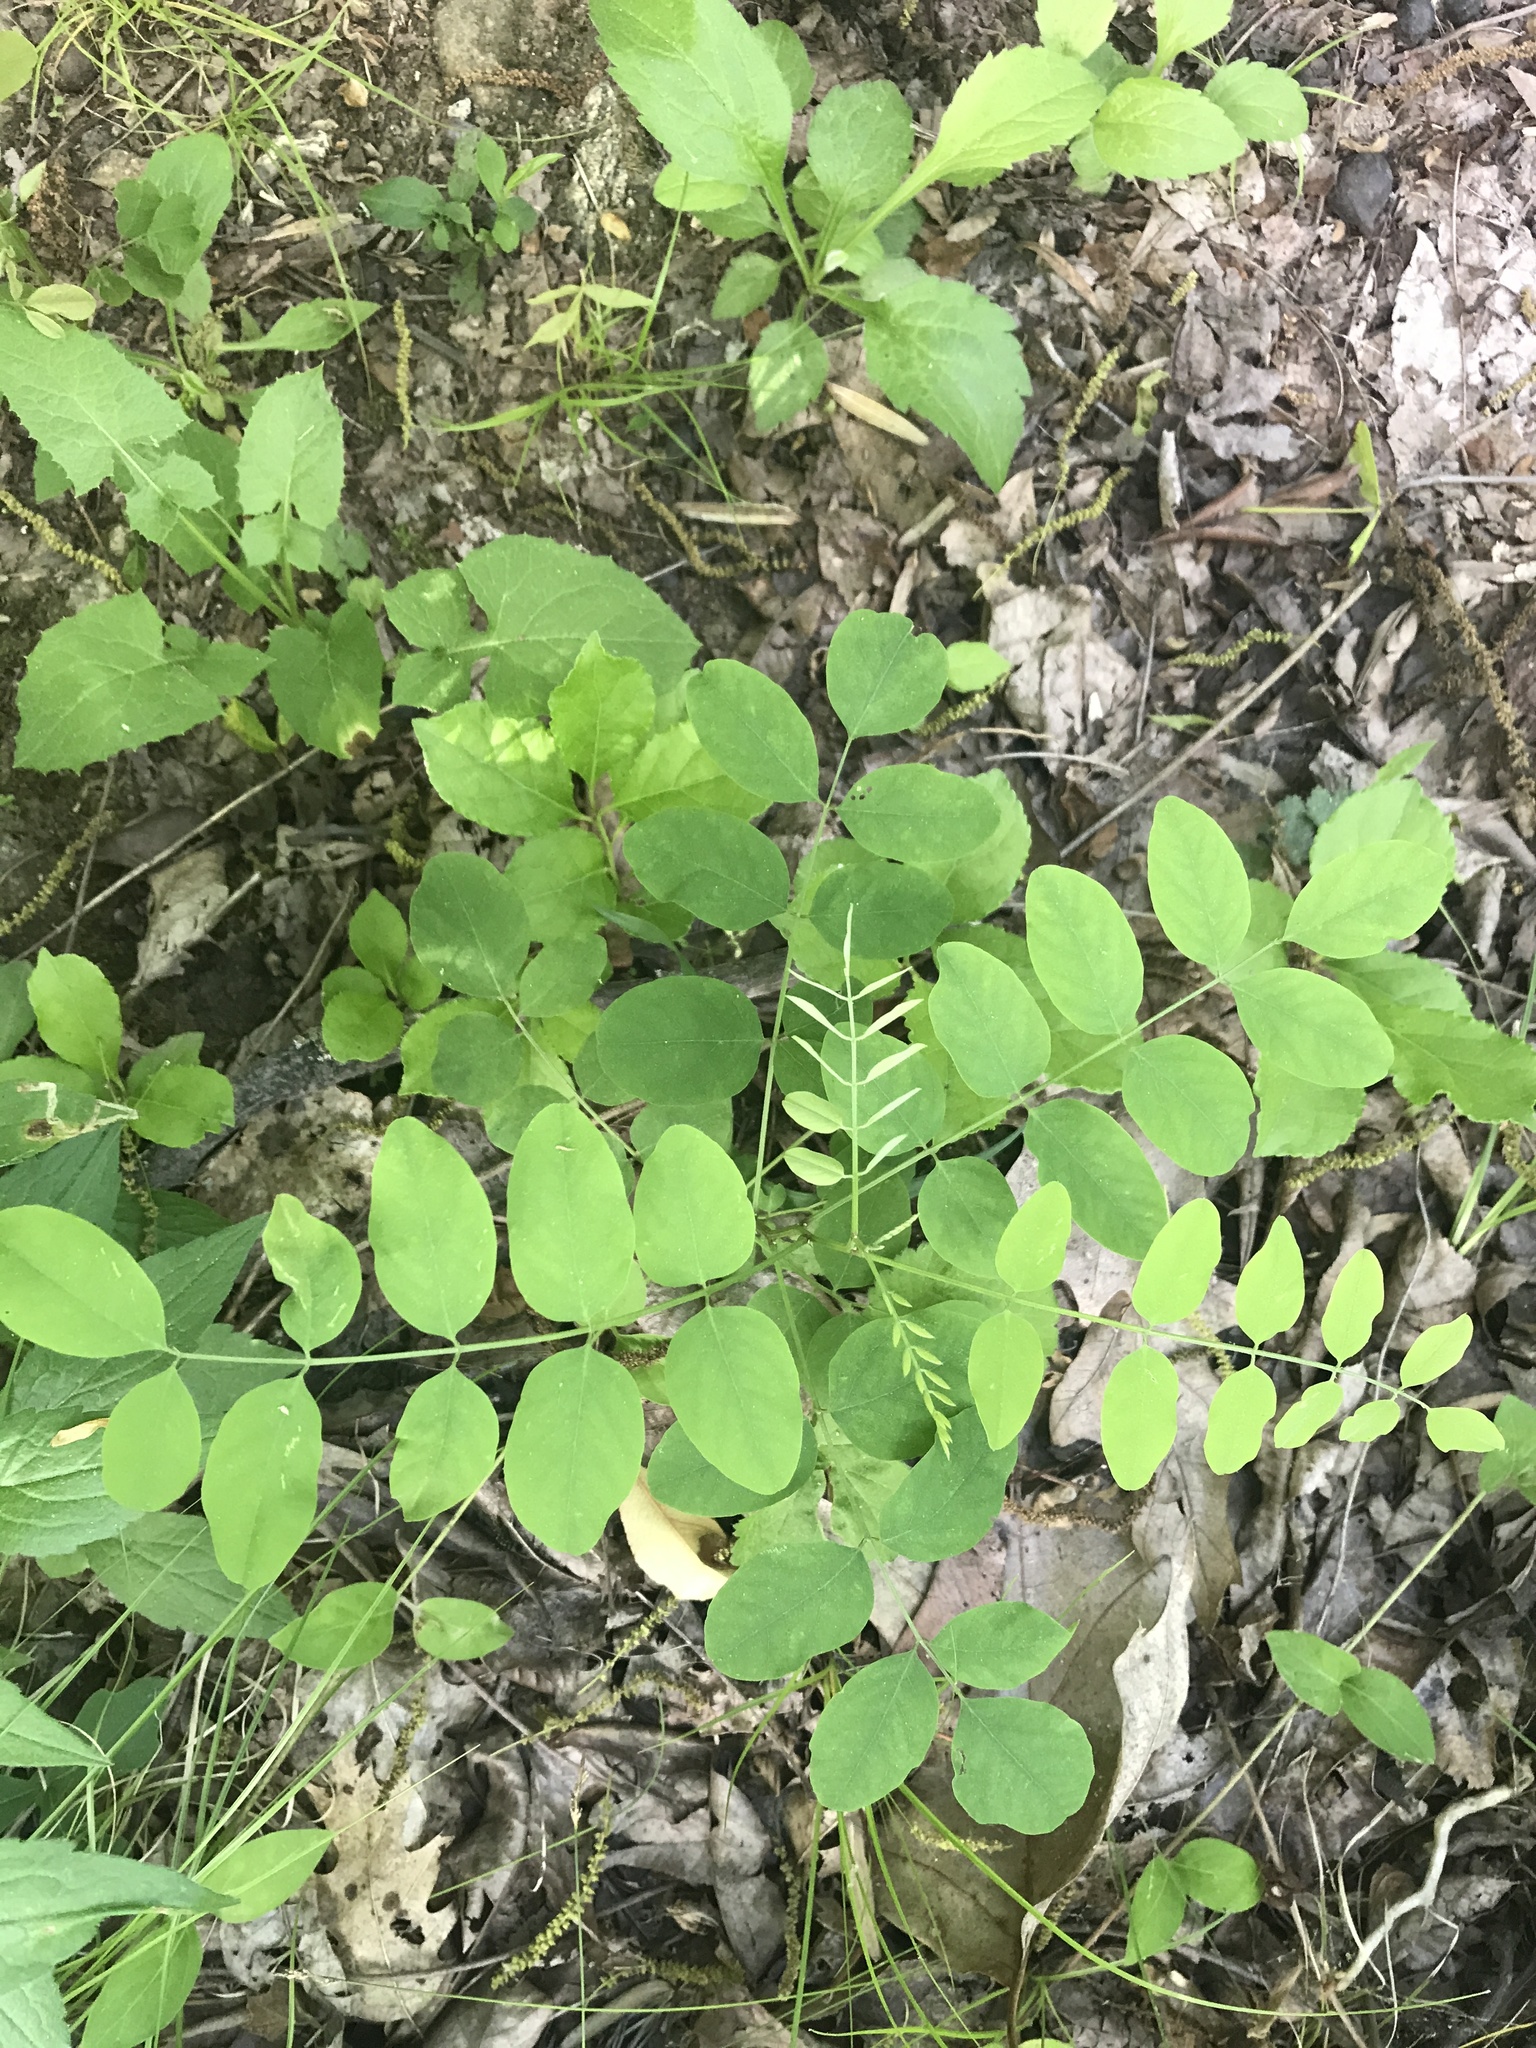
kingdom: Plantae
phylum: Tracheophyta
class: Magnoliopsida
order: Fabales
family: Fabaceae
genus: Robinia
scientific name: Robinia pseudoacacia
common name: Black locust
